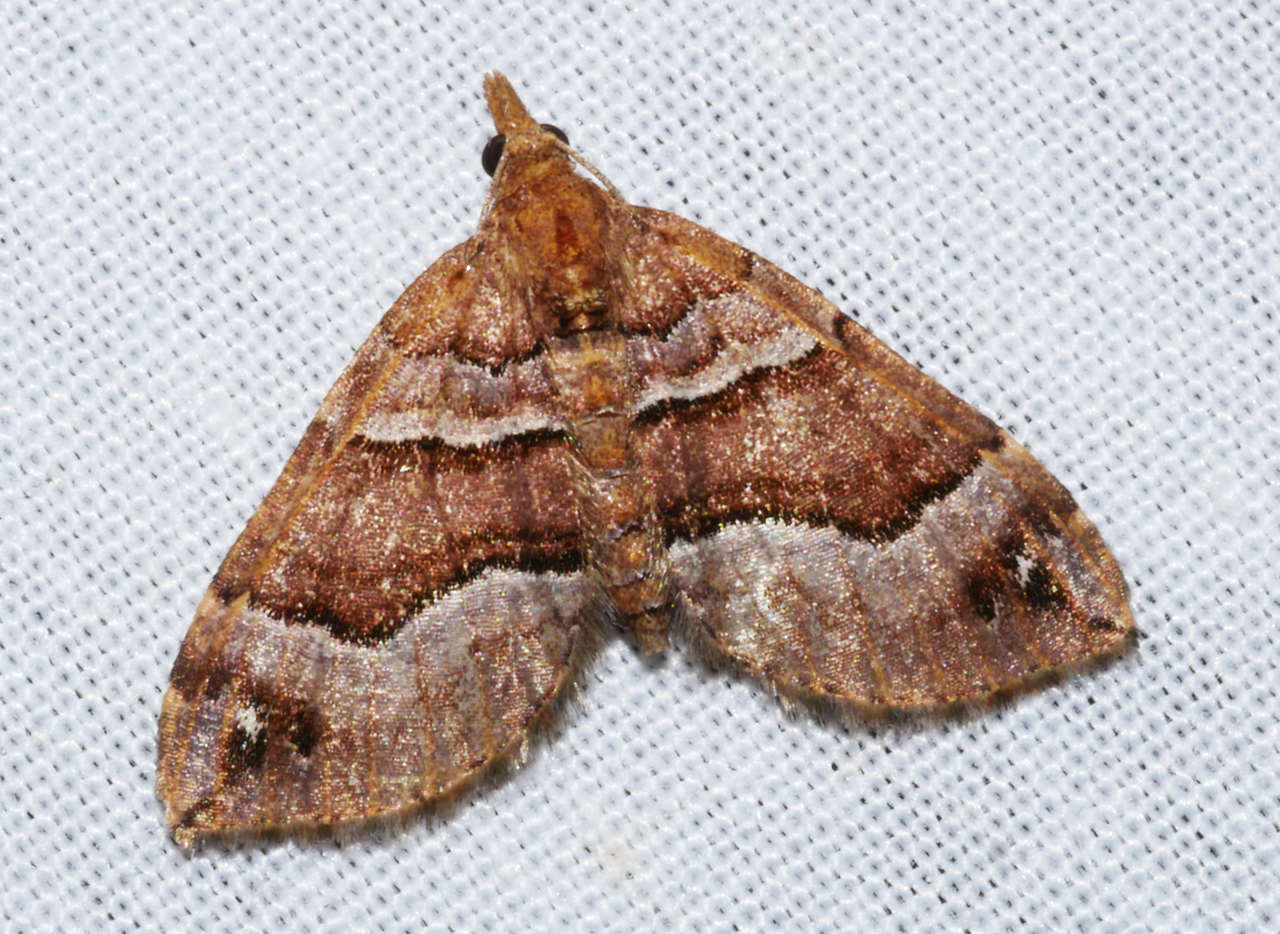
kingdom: Animalia
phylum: Arthropoda
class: Insecta
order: Lepidoptera
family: Geometridae
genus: Chaetolopha
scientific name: Chaetolopha emporias
